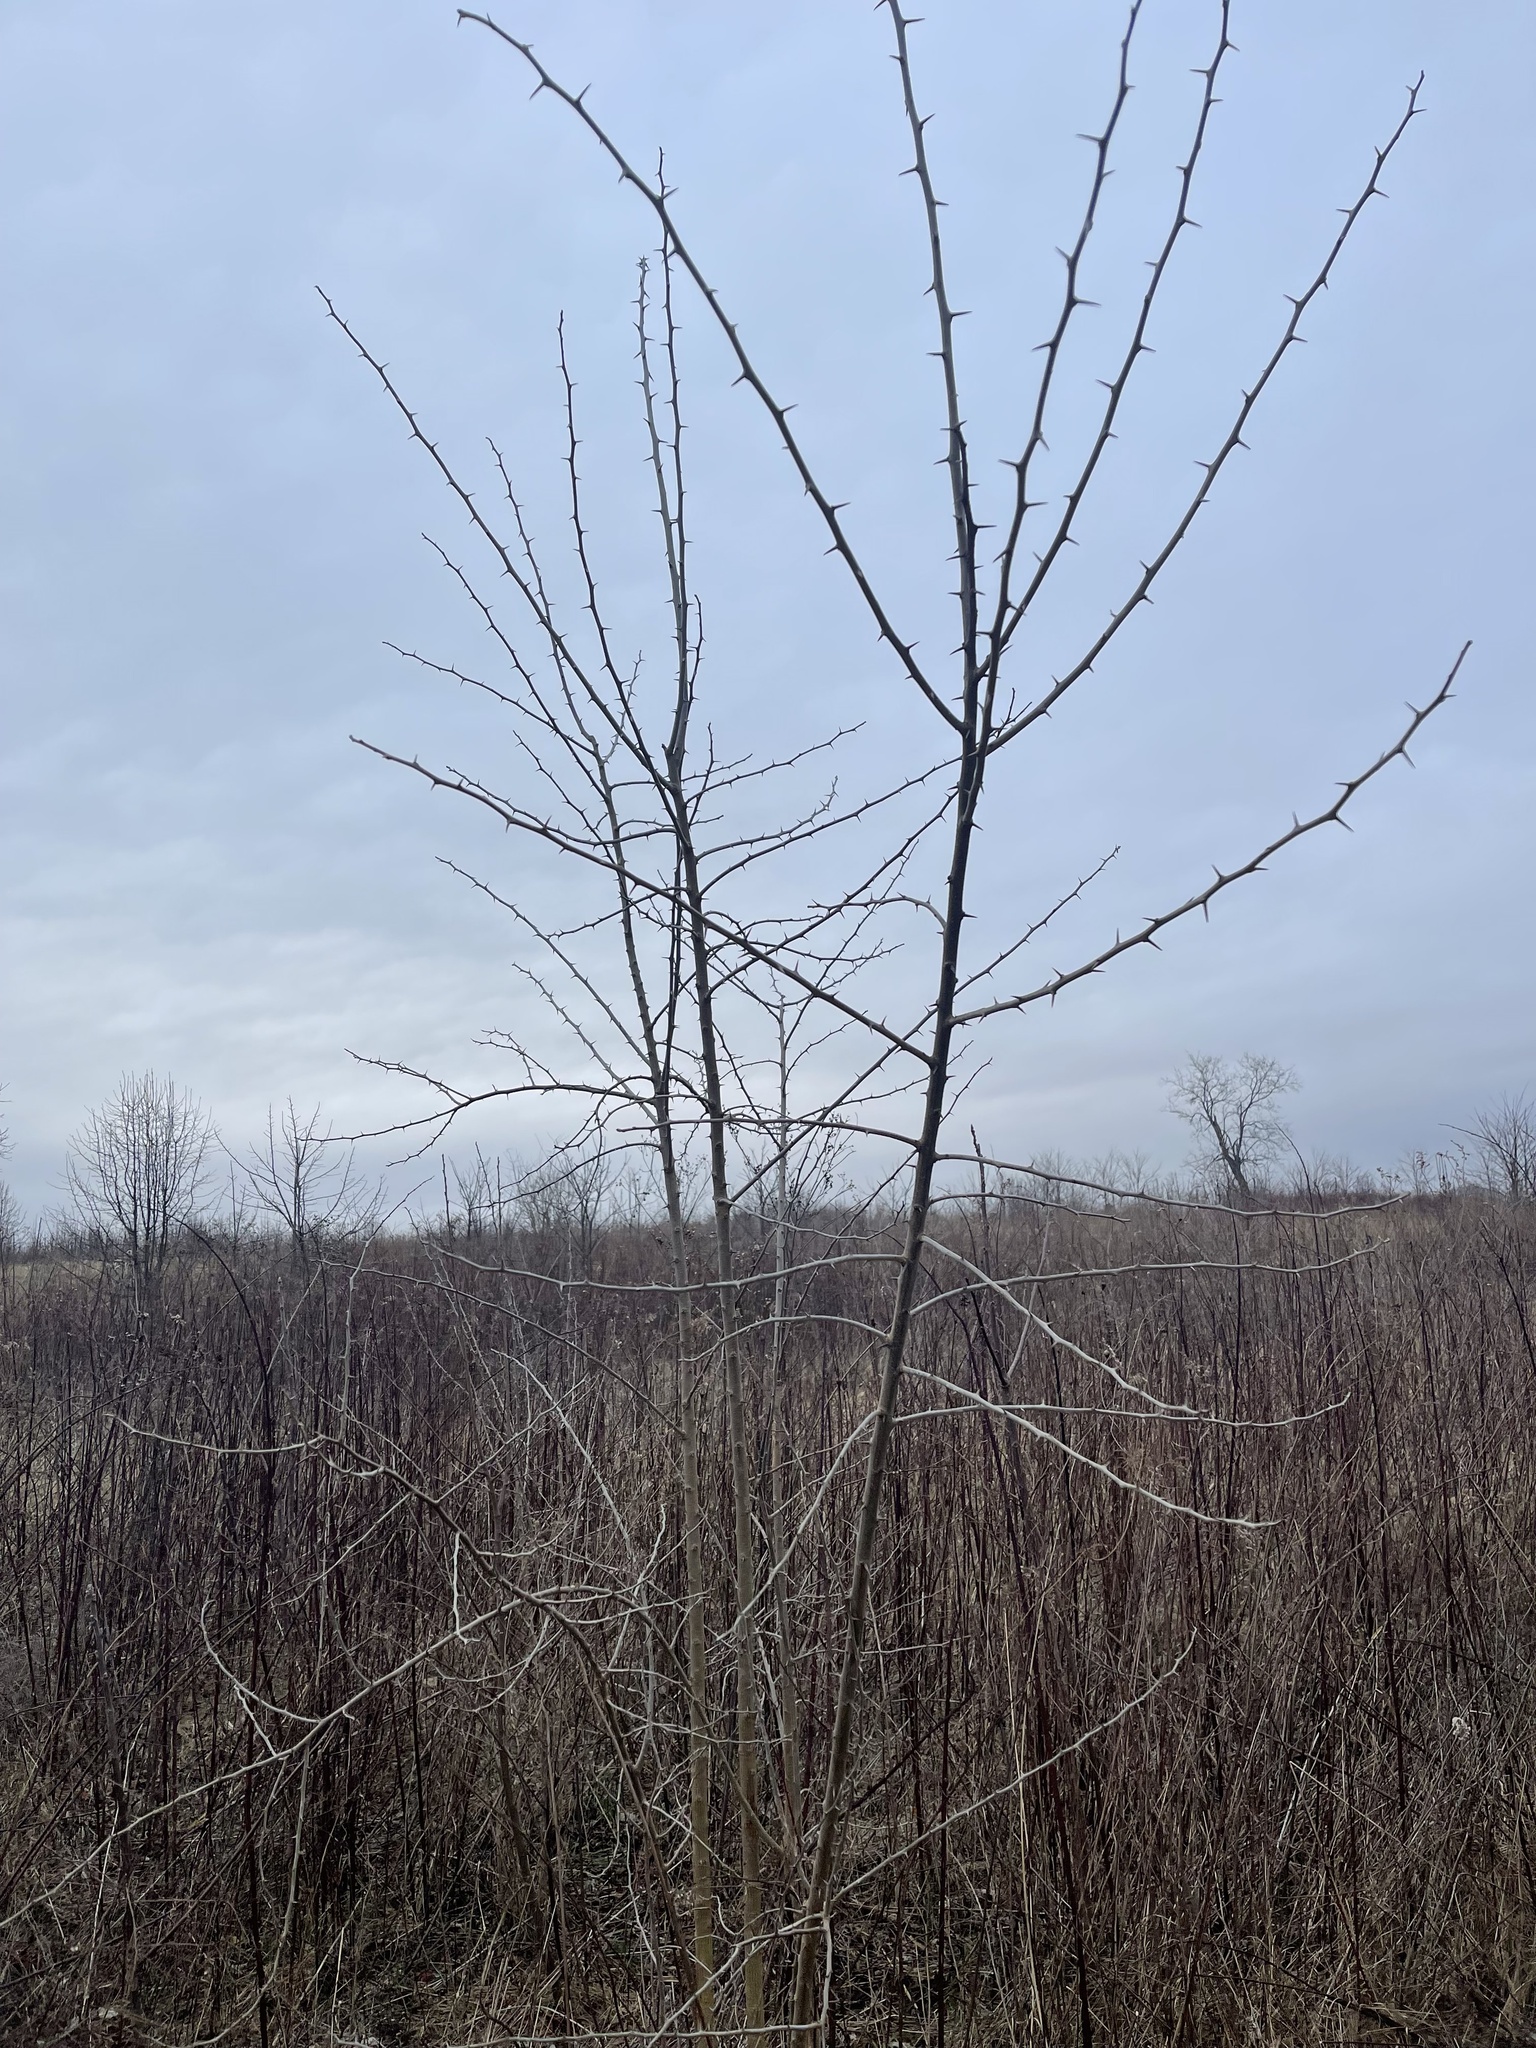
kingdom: Plantae
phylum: Tracheophyta
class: Magnoliopsida
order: Rosales
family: Moraceae
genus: Maclura
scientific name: Maclura pomifera
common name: Osage-orange
